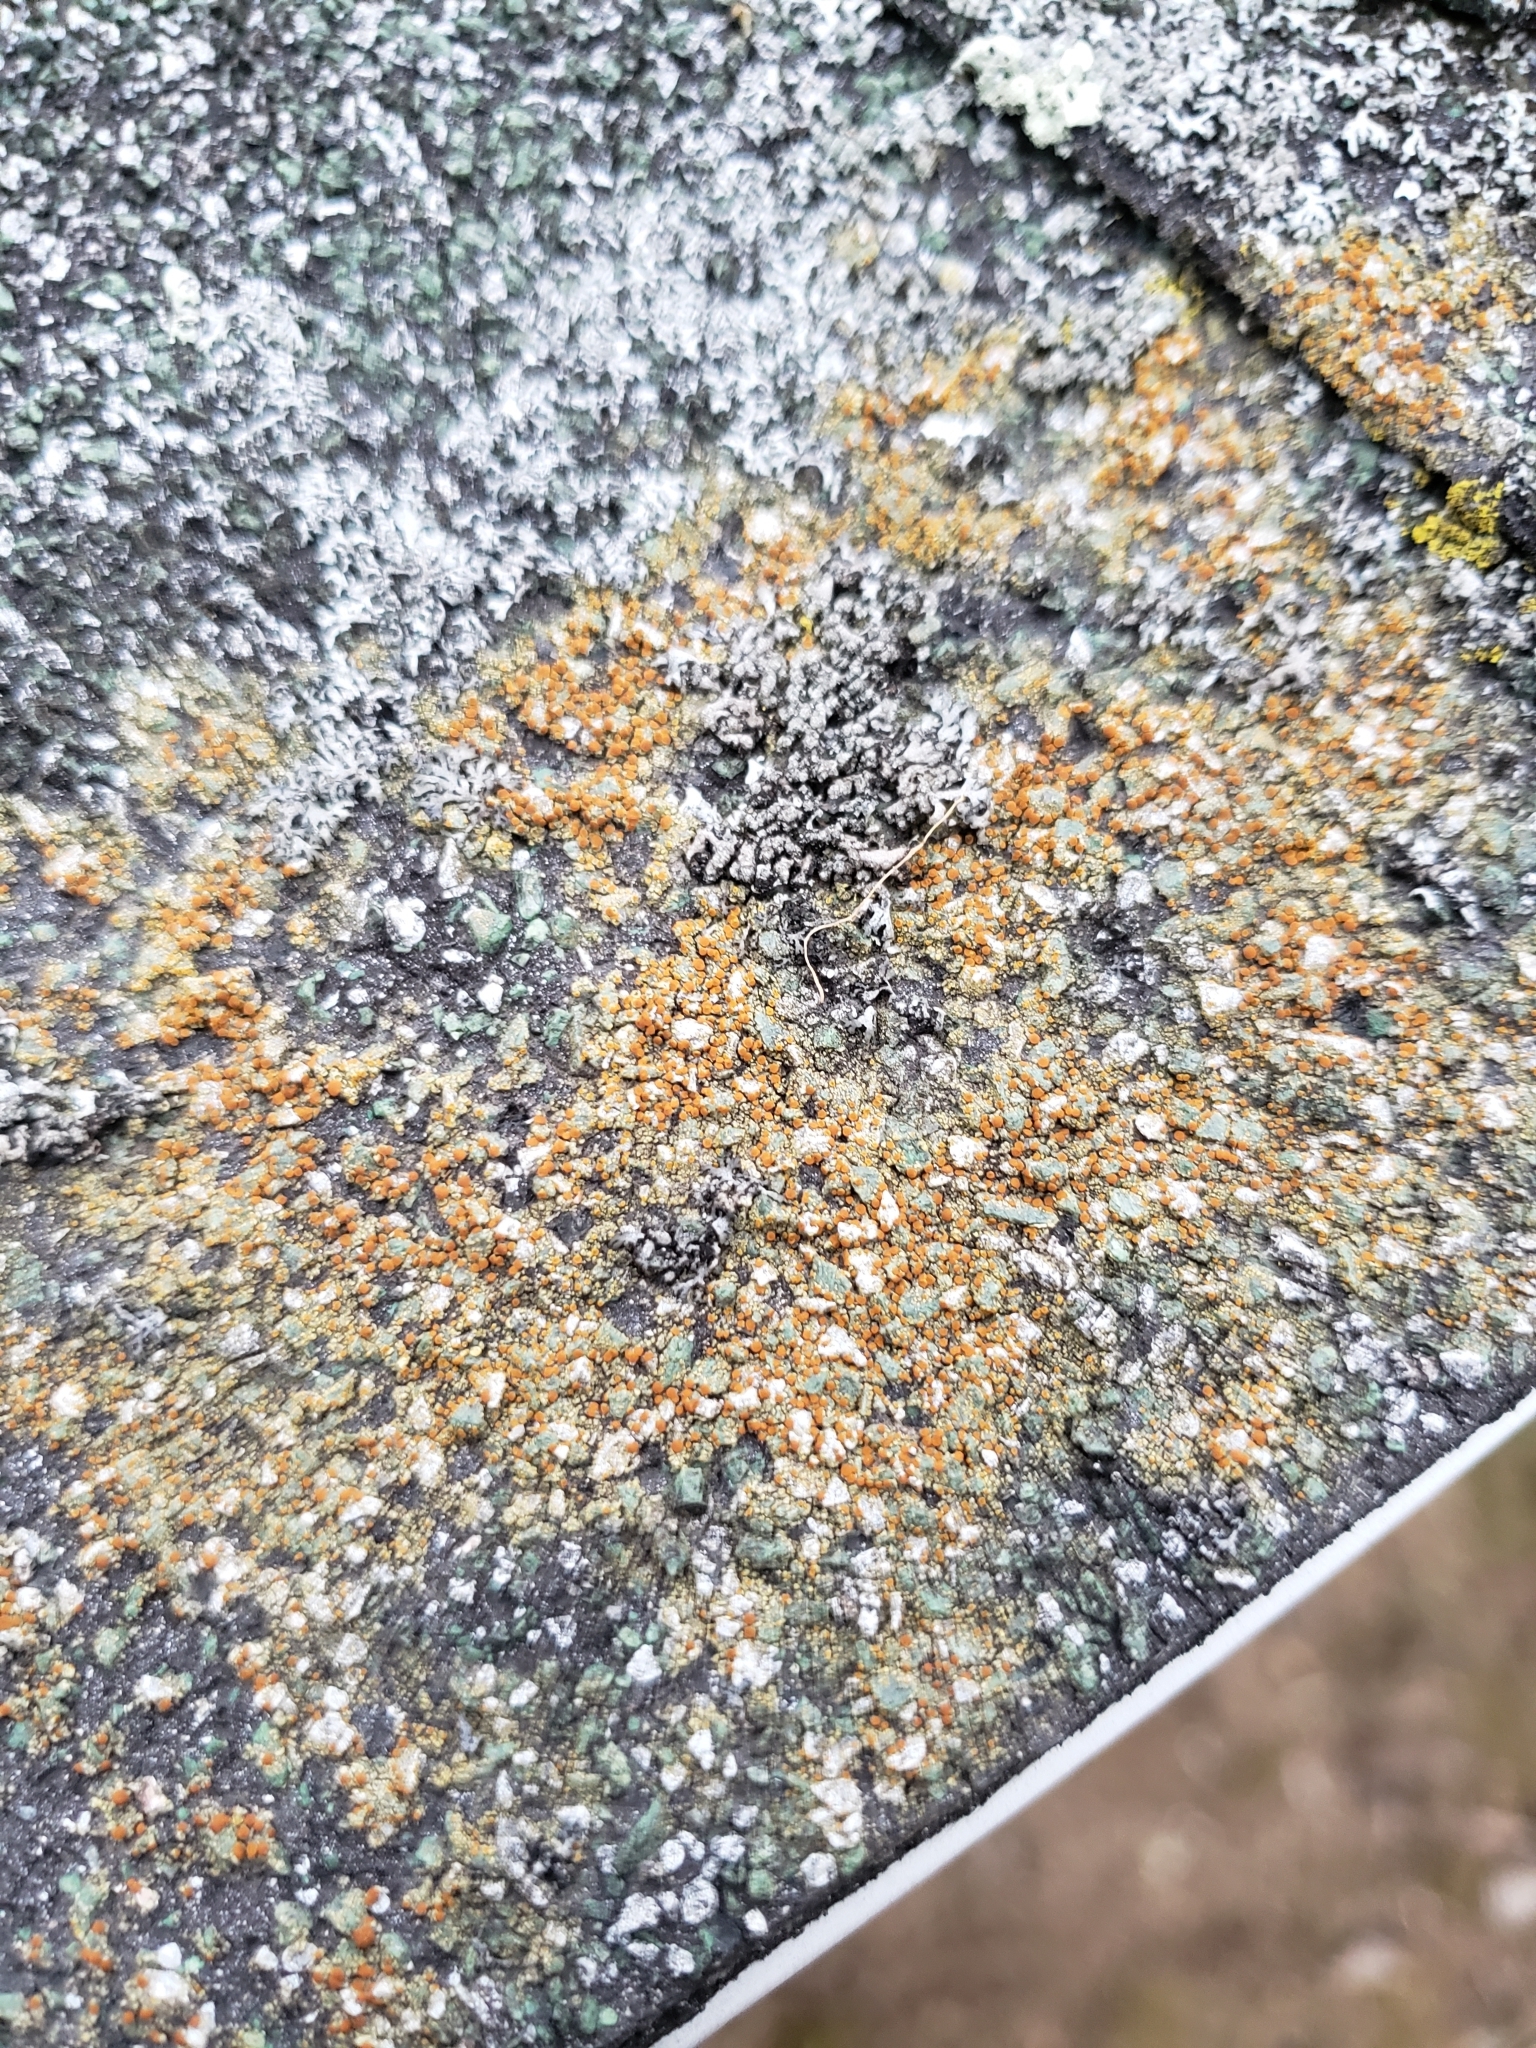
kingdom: Fungi
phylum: Ascomycota
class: Lecanoromycetes
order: Teloschistales
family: Teloschistaceae
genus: Gyalolechia
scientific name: Gyalolechia flavovirescens
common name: Sulphur firedot
